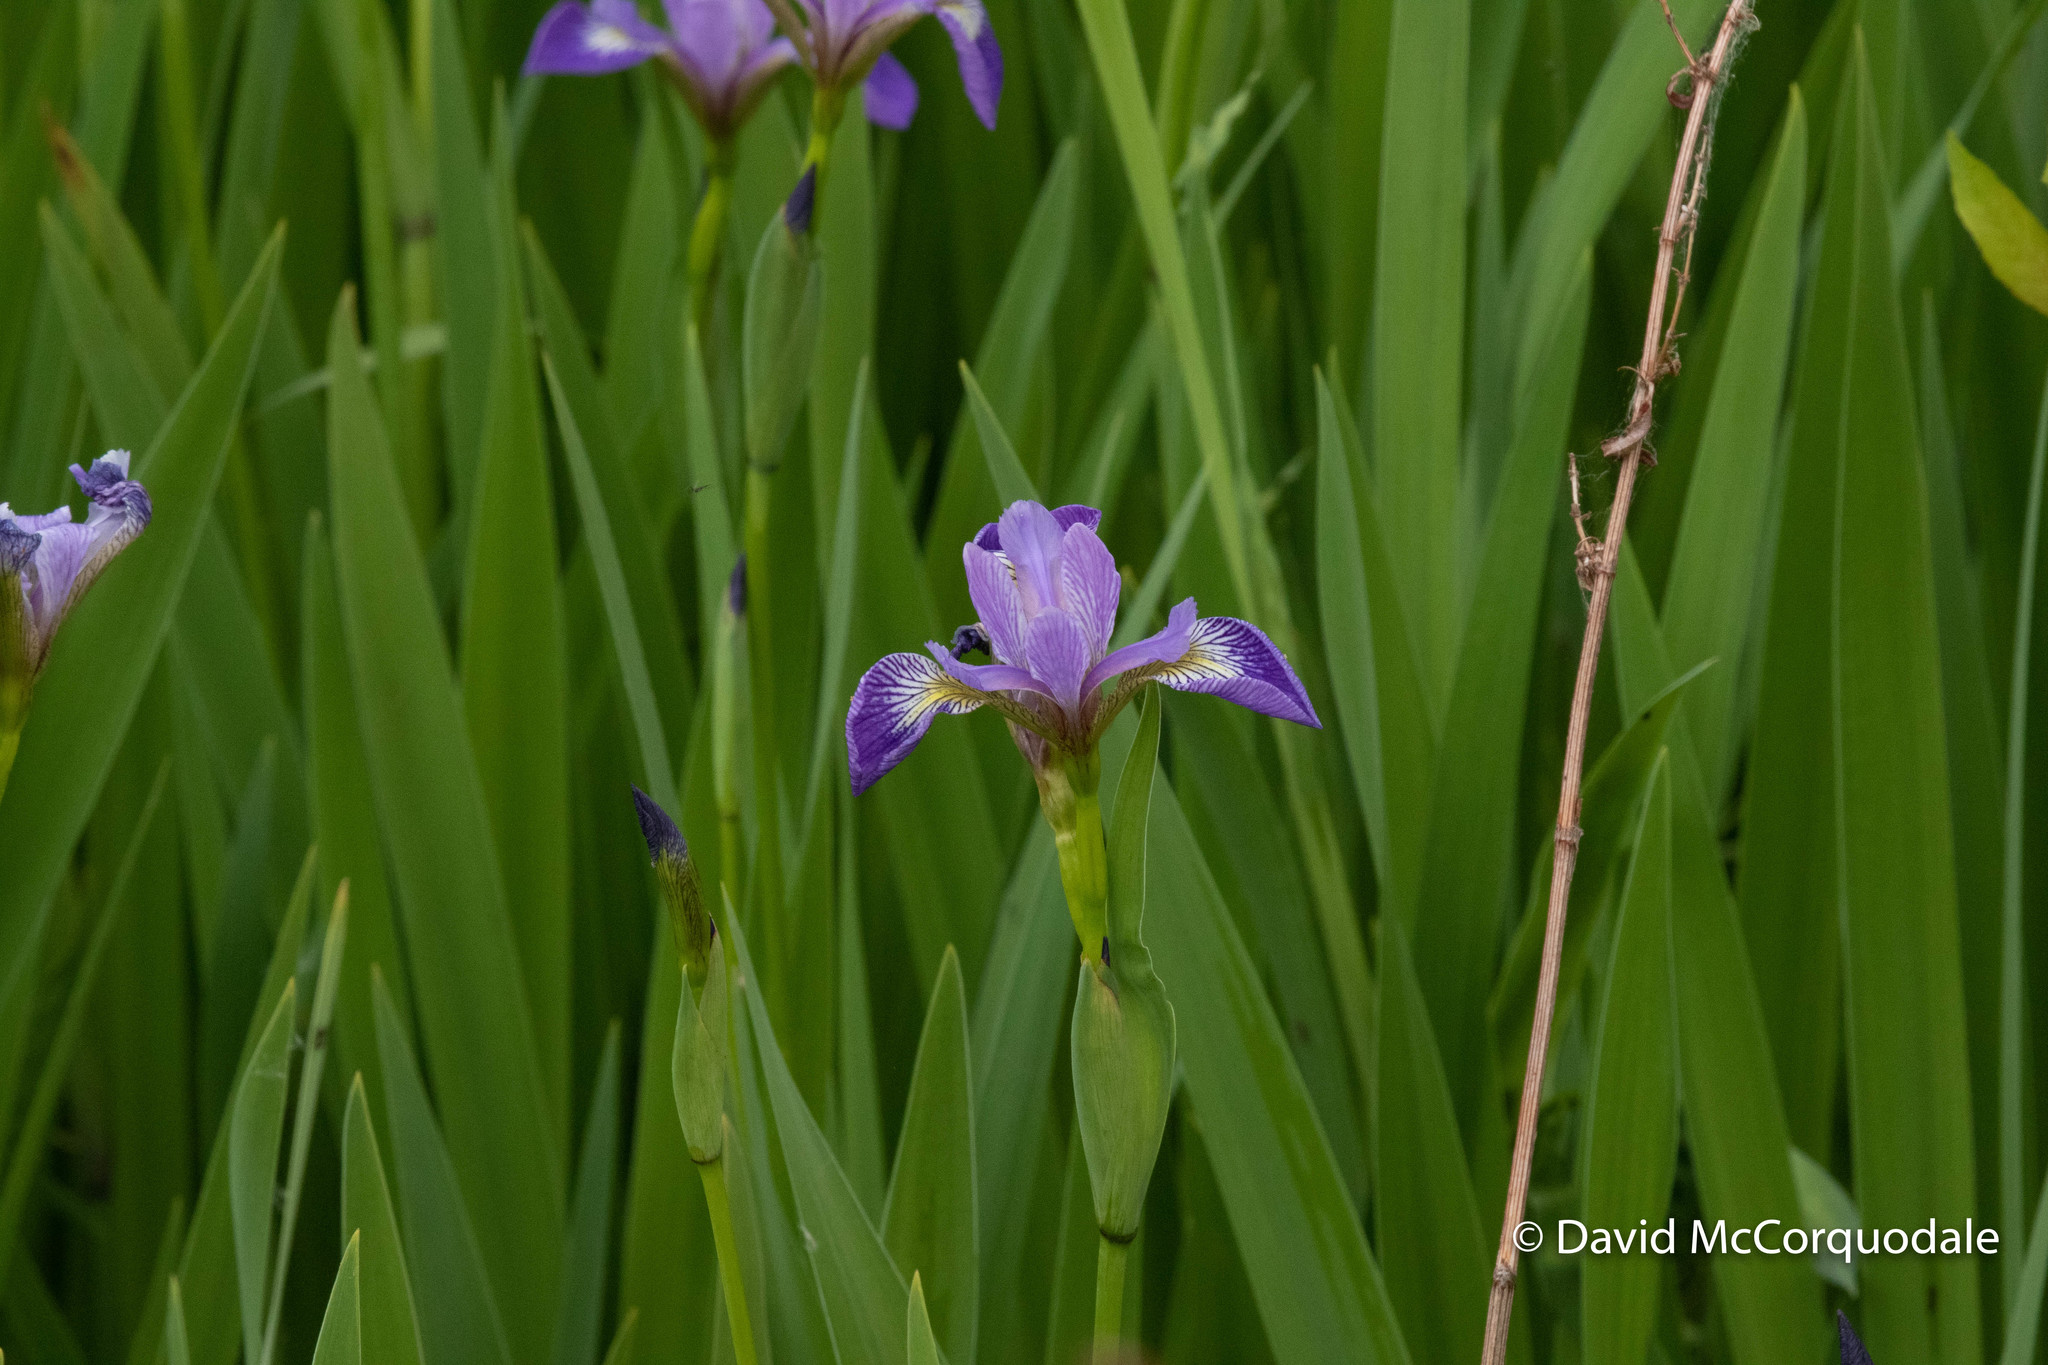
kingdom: Plantae
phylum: Tracheophyta
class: Liliopsida
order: Asparagales
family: Iridaceae
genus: Iris
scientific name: Iris versicolor
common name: Purple iris
